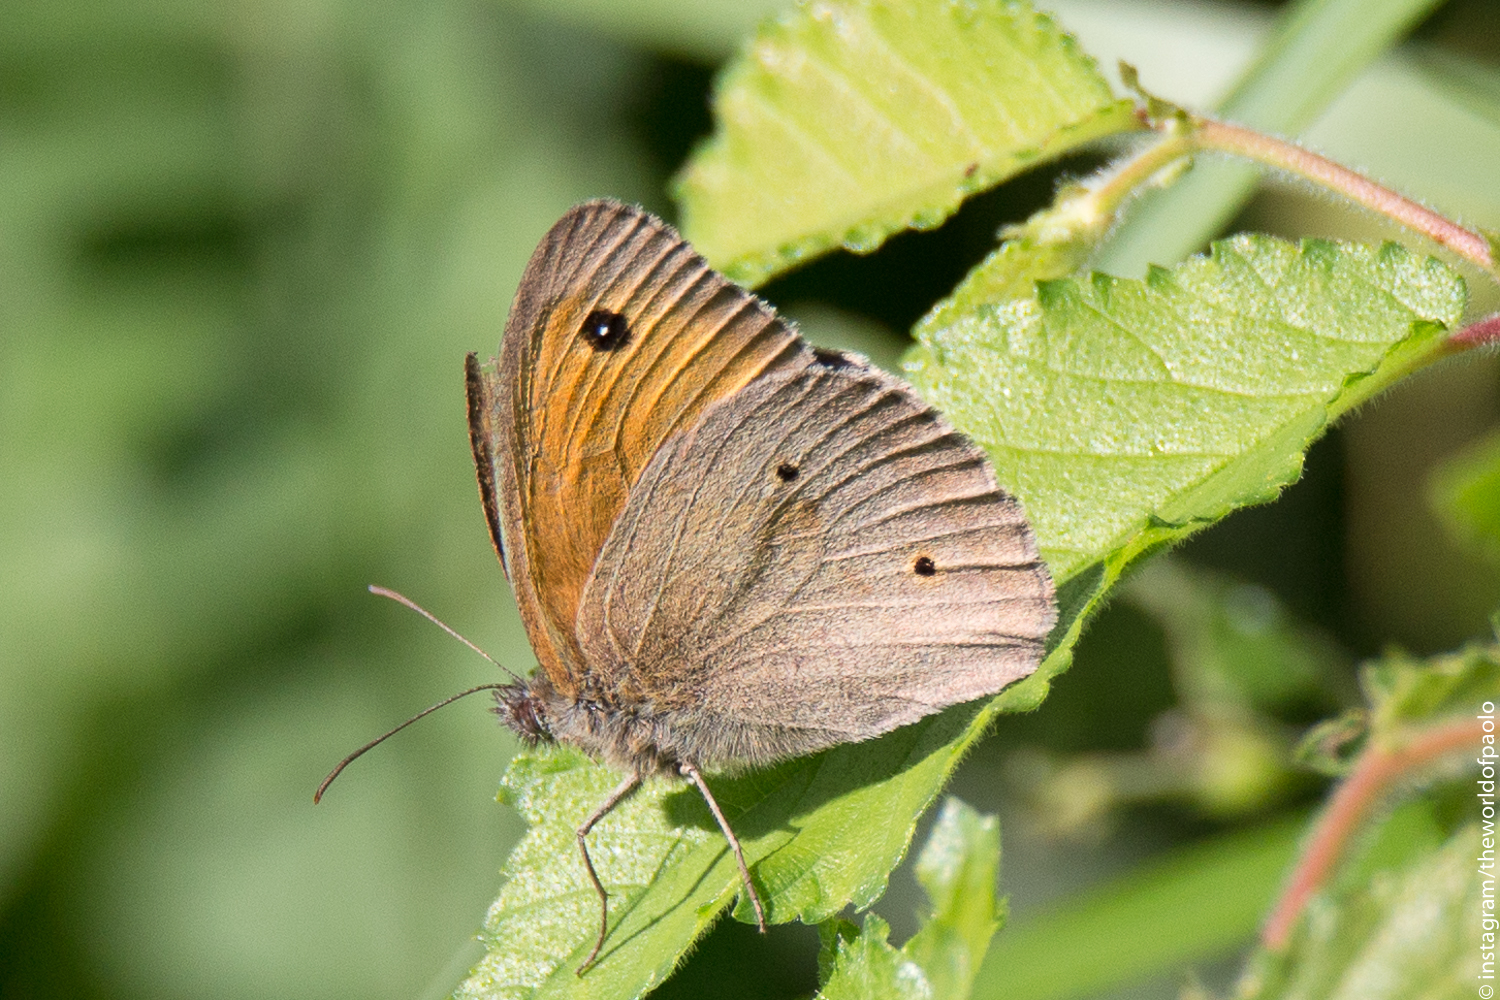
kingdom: Animalia
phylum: Arthropoda
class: Insecta
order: Lepidoptera
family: Nymphalidae
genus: Maniola
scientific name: Maniola jurtina
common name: Meadow brown
